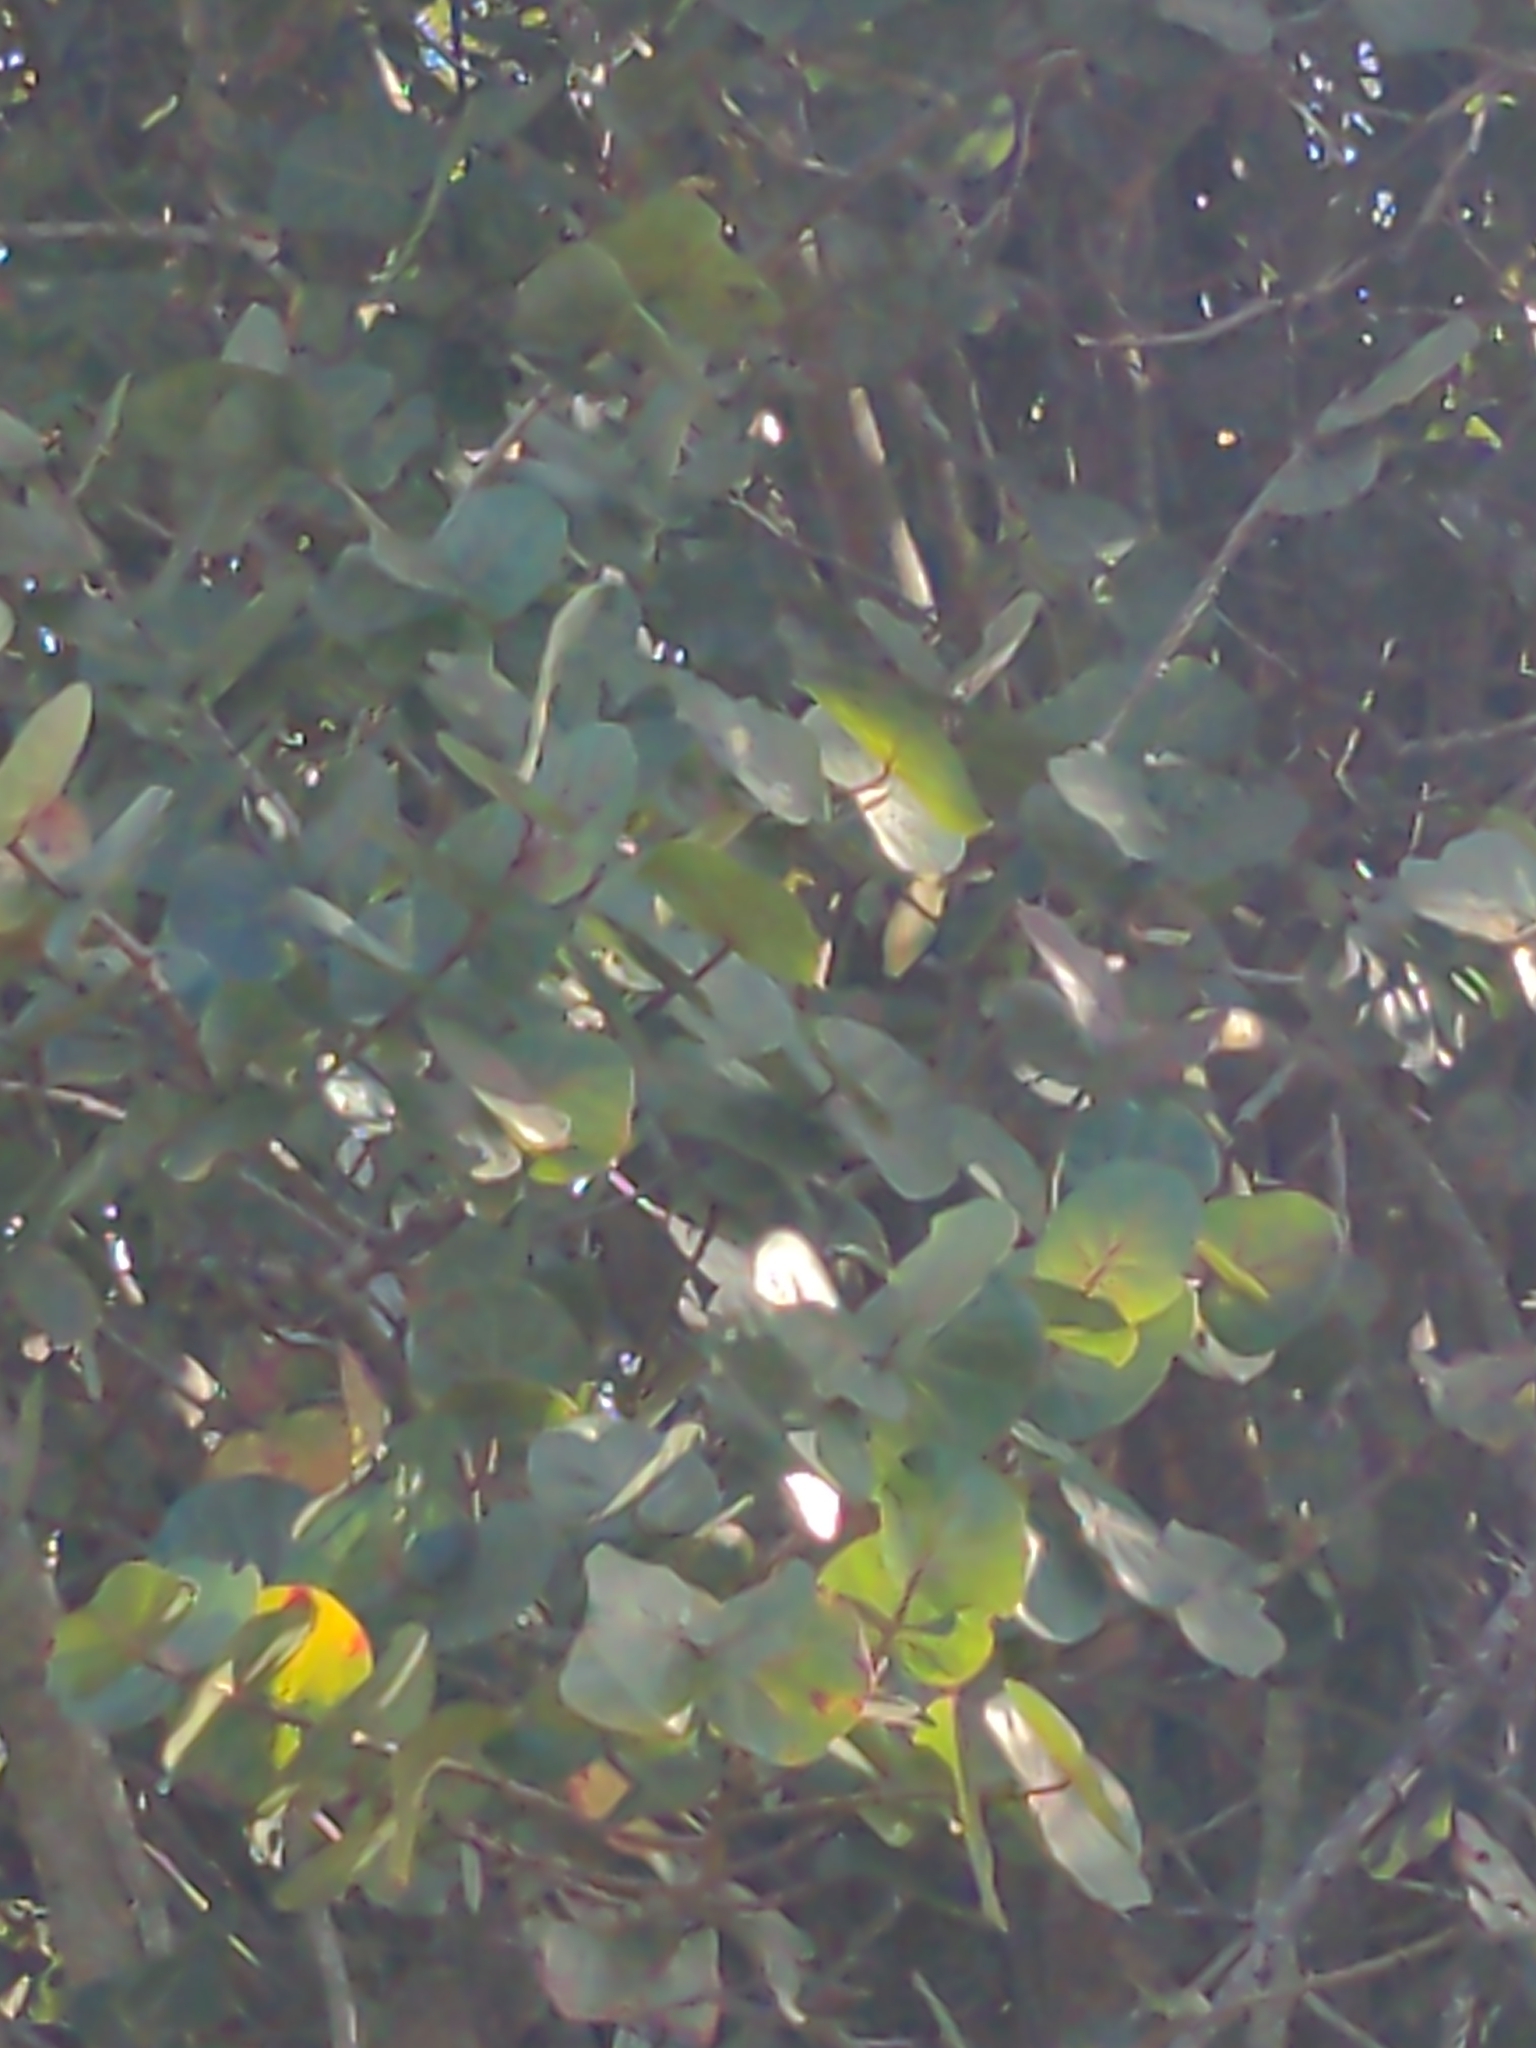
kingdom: Plantae
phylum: Tracheophyta
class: Magnoliopsida
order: Caryophyllales
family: Polygonaceae
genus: Coccoloba
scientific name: Coccoloba uvifera
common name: Seagrape
